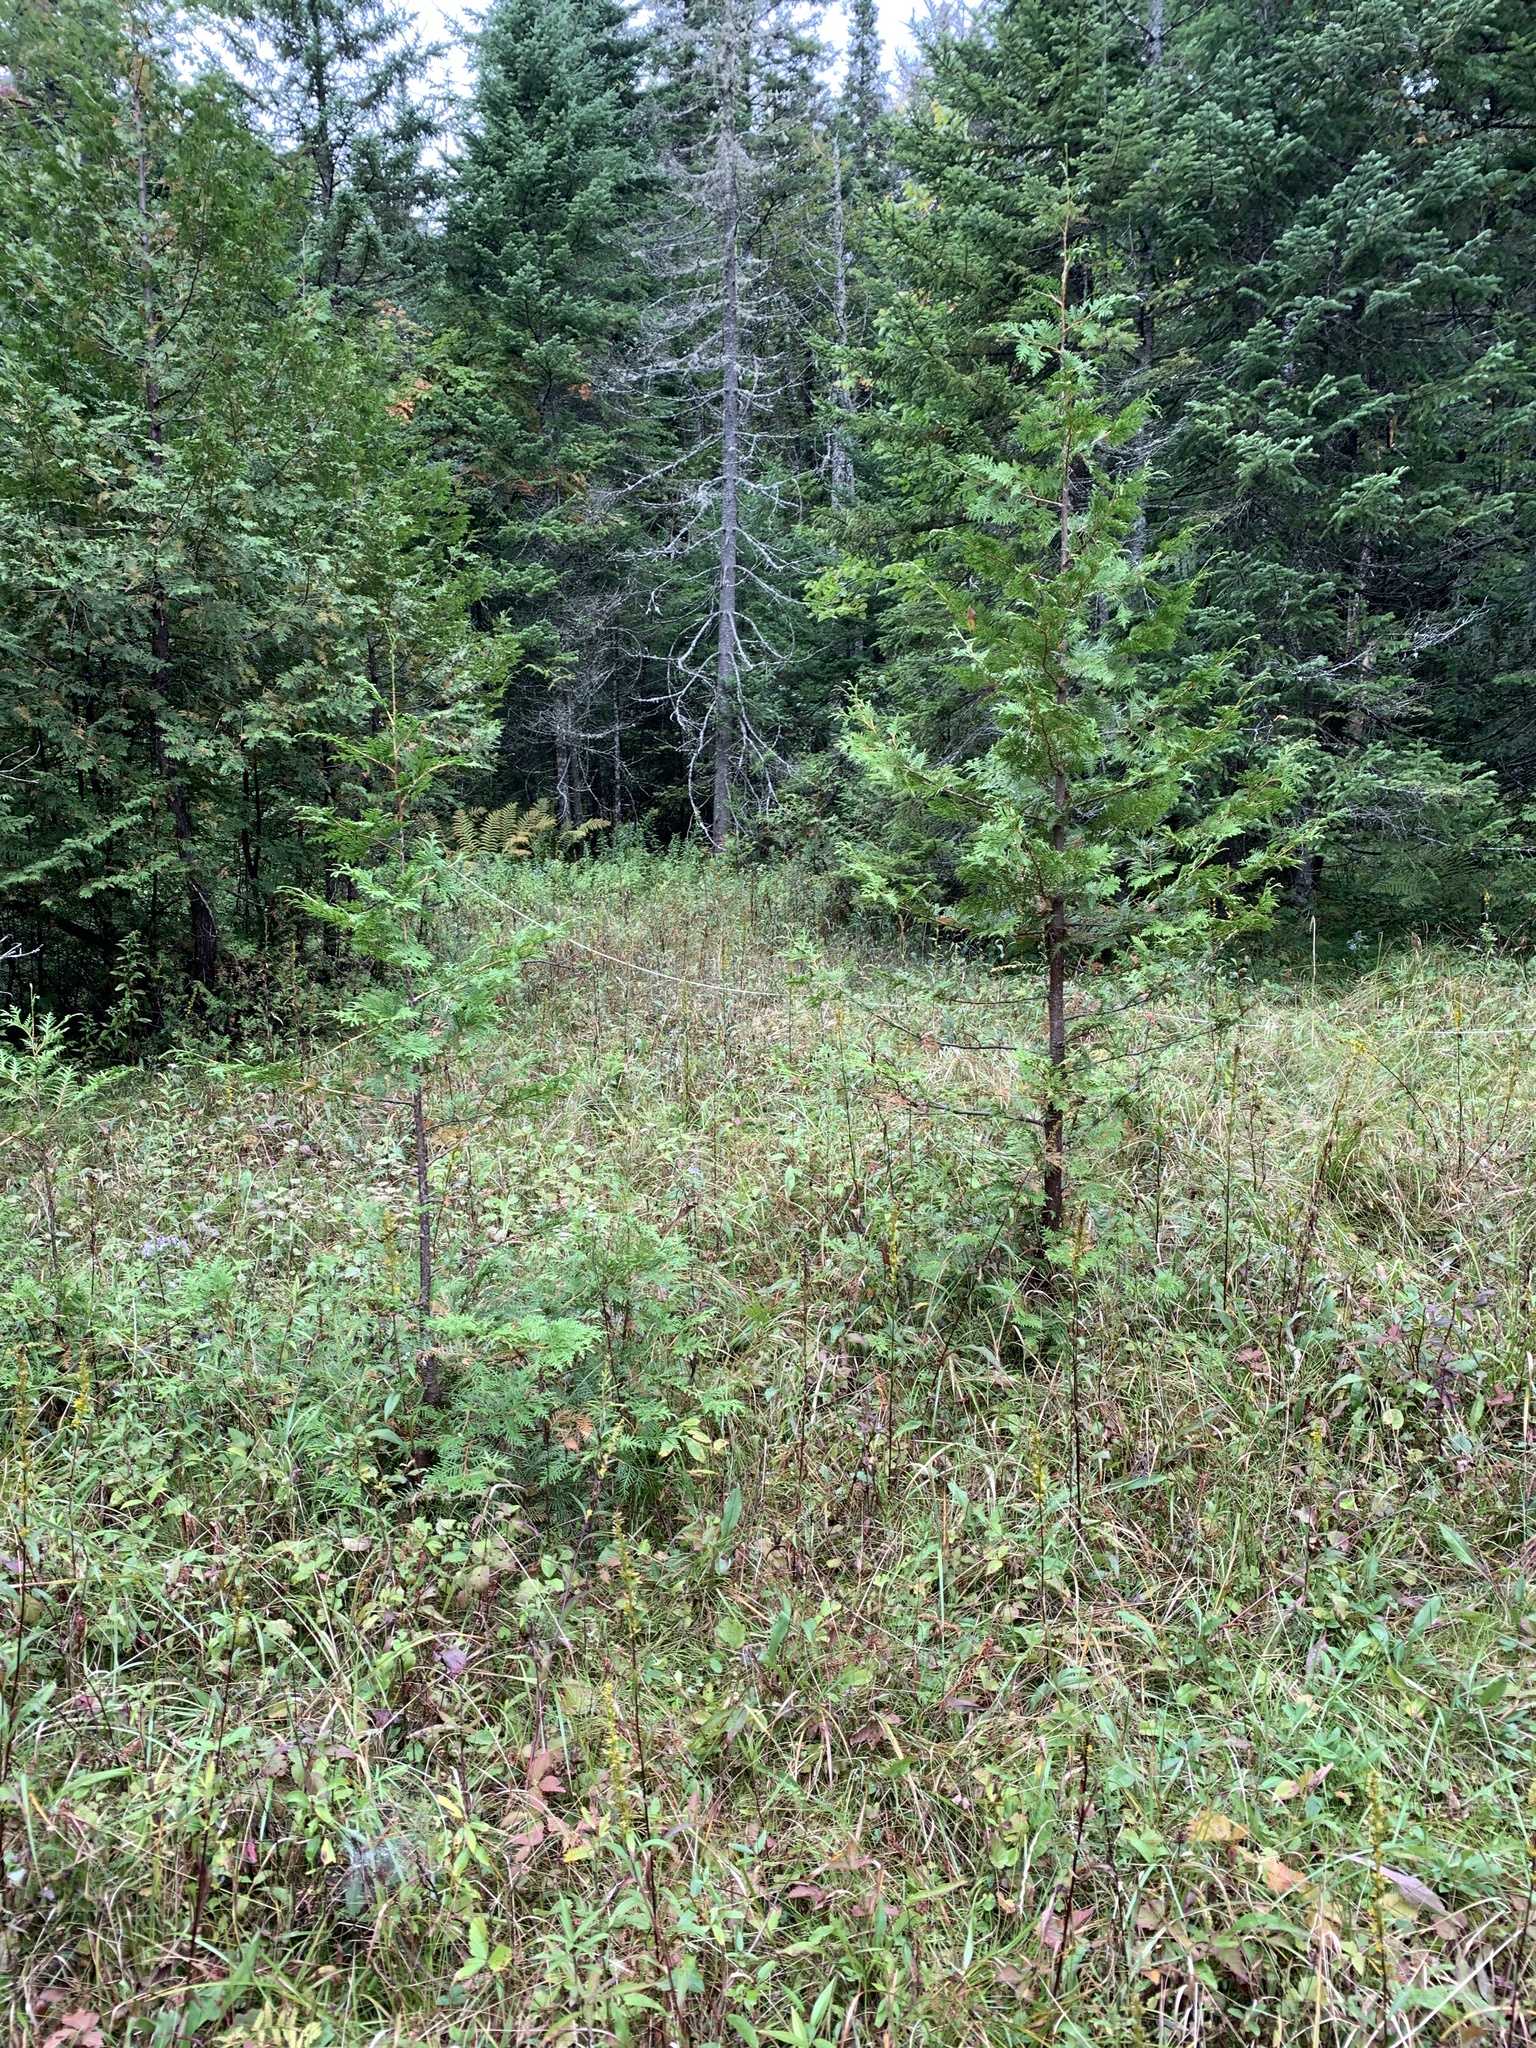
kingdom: Plantae
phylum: Tracheophyta
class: Pinopsida
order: Pinales
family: Cupressaceae
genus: Thuja
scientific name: Thuja occidentalis
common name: Northern white-cedar
